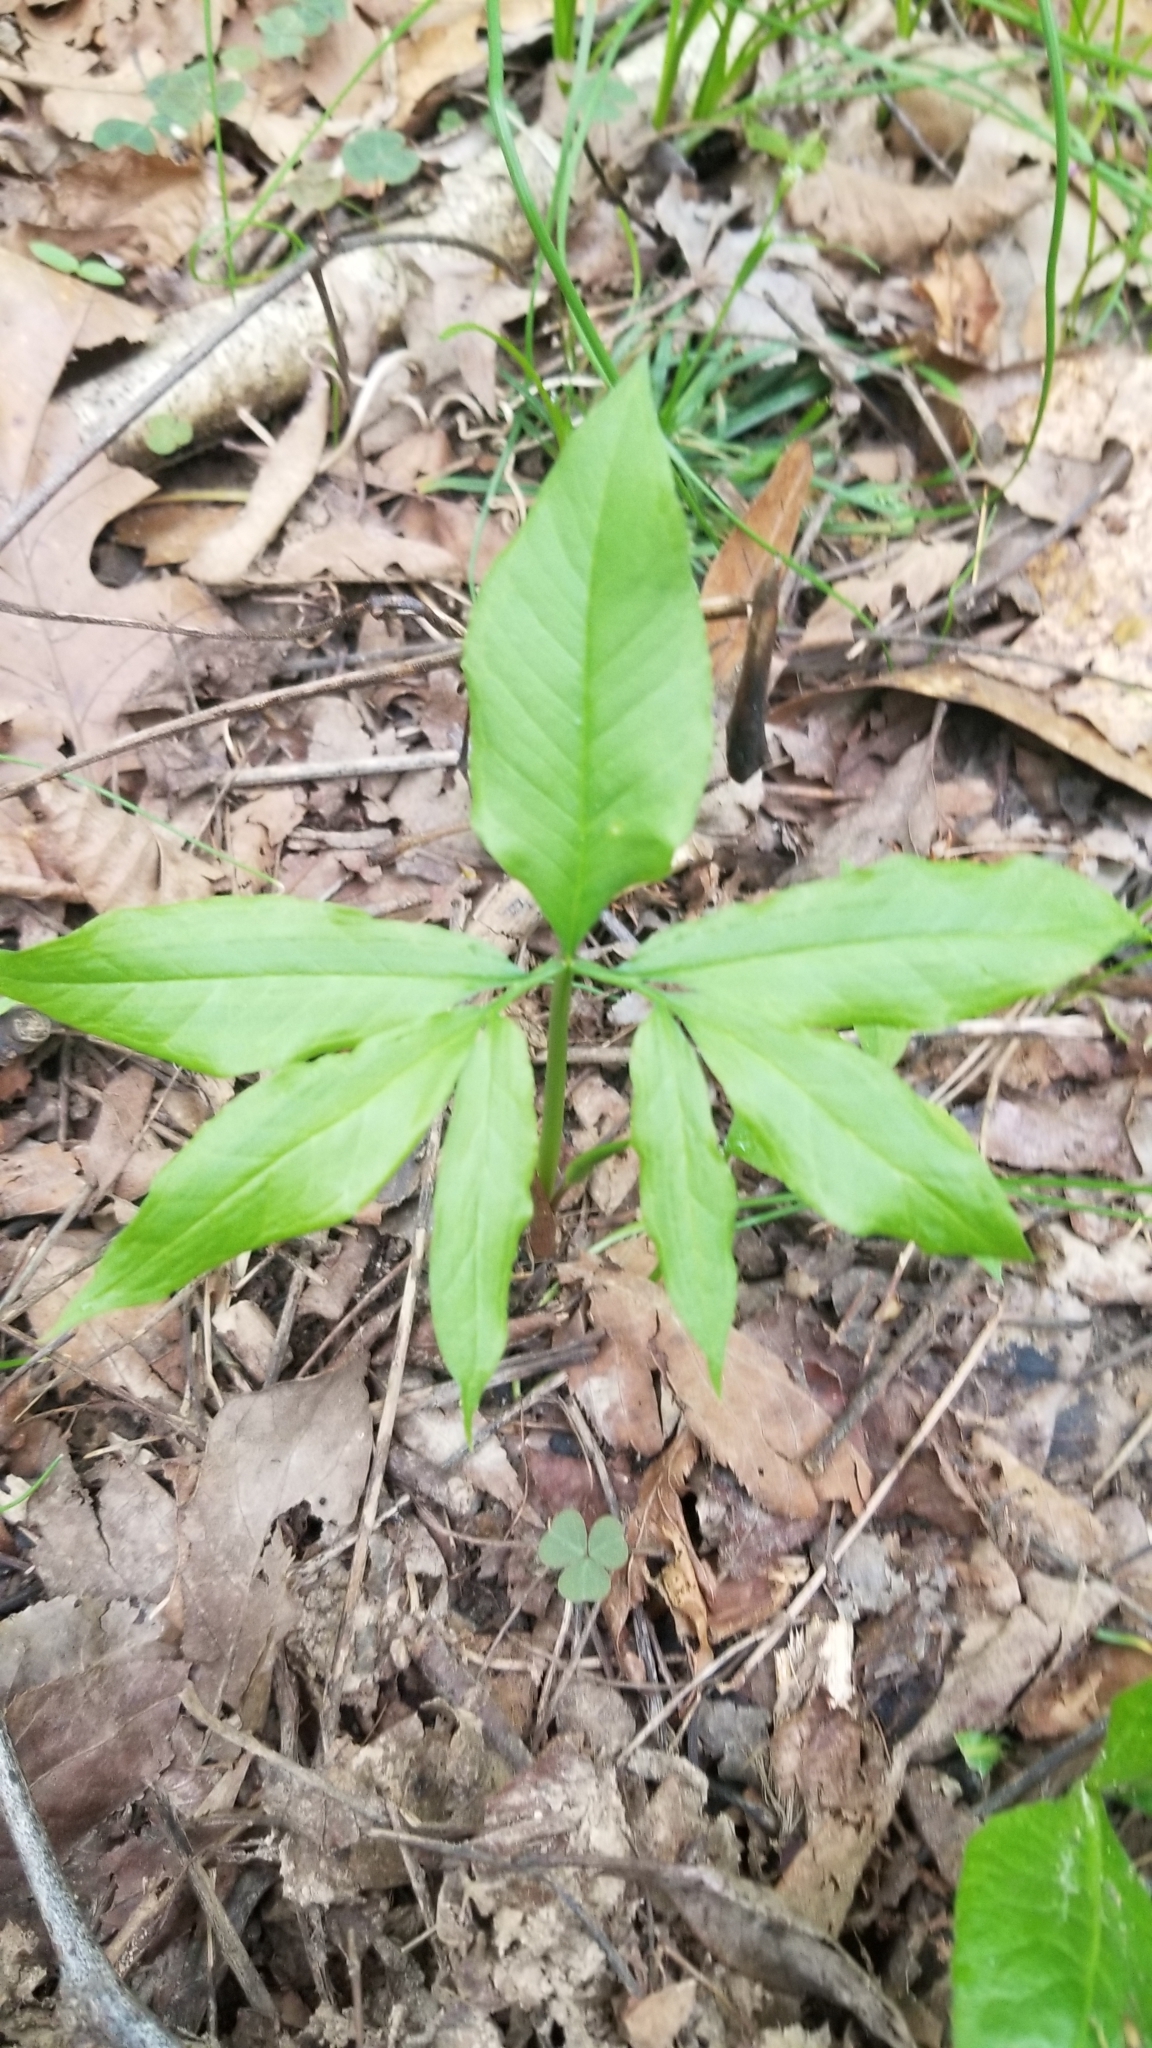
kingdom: Plantae
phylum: Tracheophyta
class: Liliopsida
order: Alismatales
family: Araceae
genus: Arisaema
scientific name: Arisaema dracontium
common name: Dragon-arum
